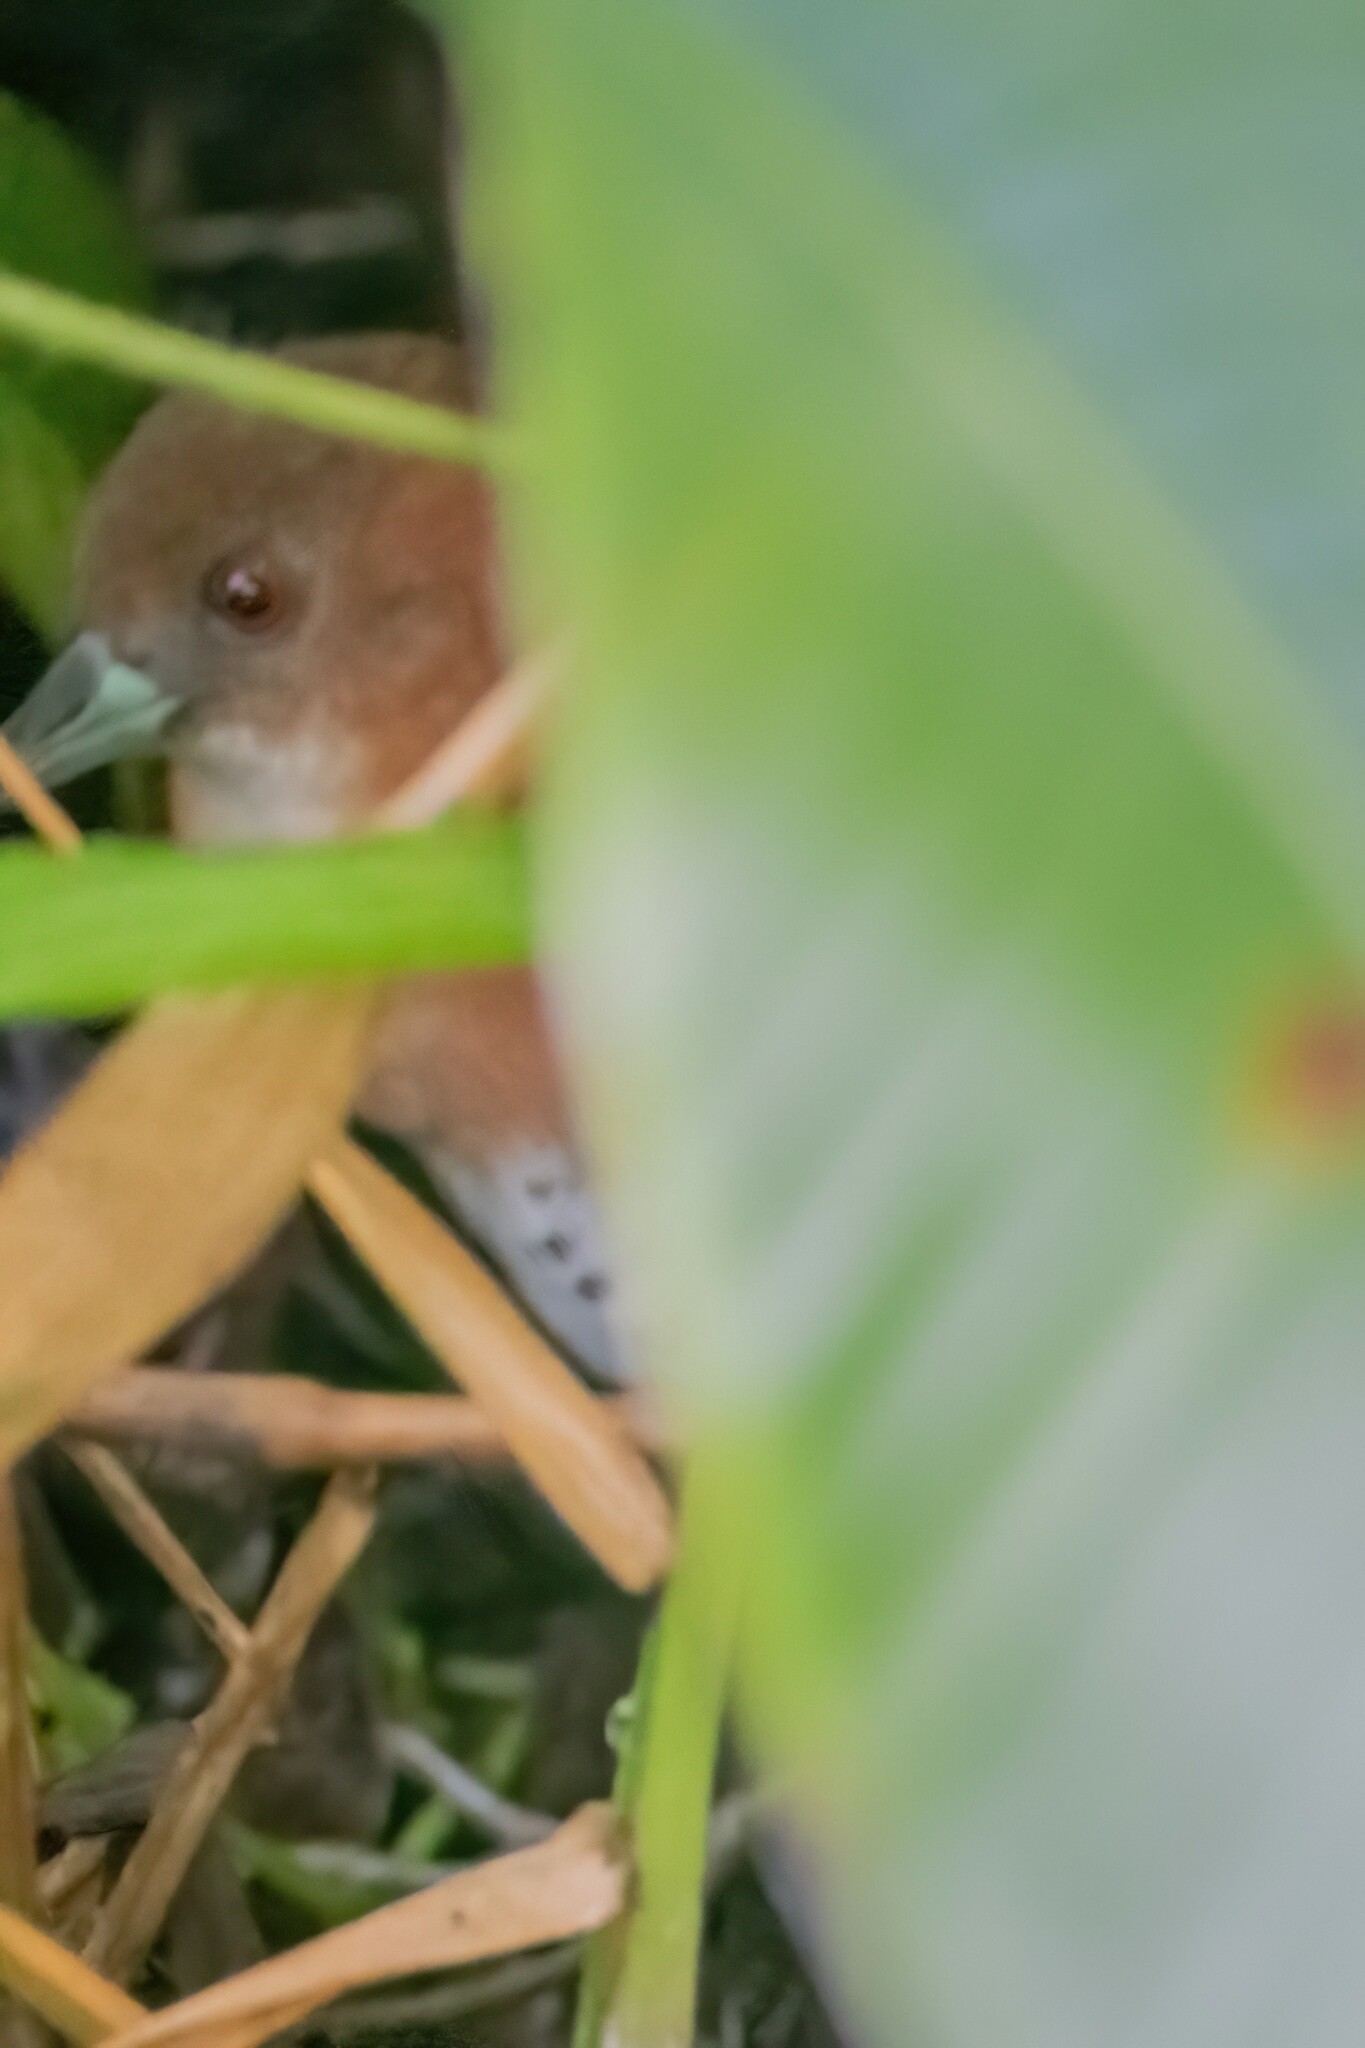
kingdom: Animalia
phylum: Chordata
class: Aves
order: Gruiformes
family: Rallidae
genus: Laterallus
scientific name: Laterallus albigularis
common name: White-throated crake
